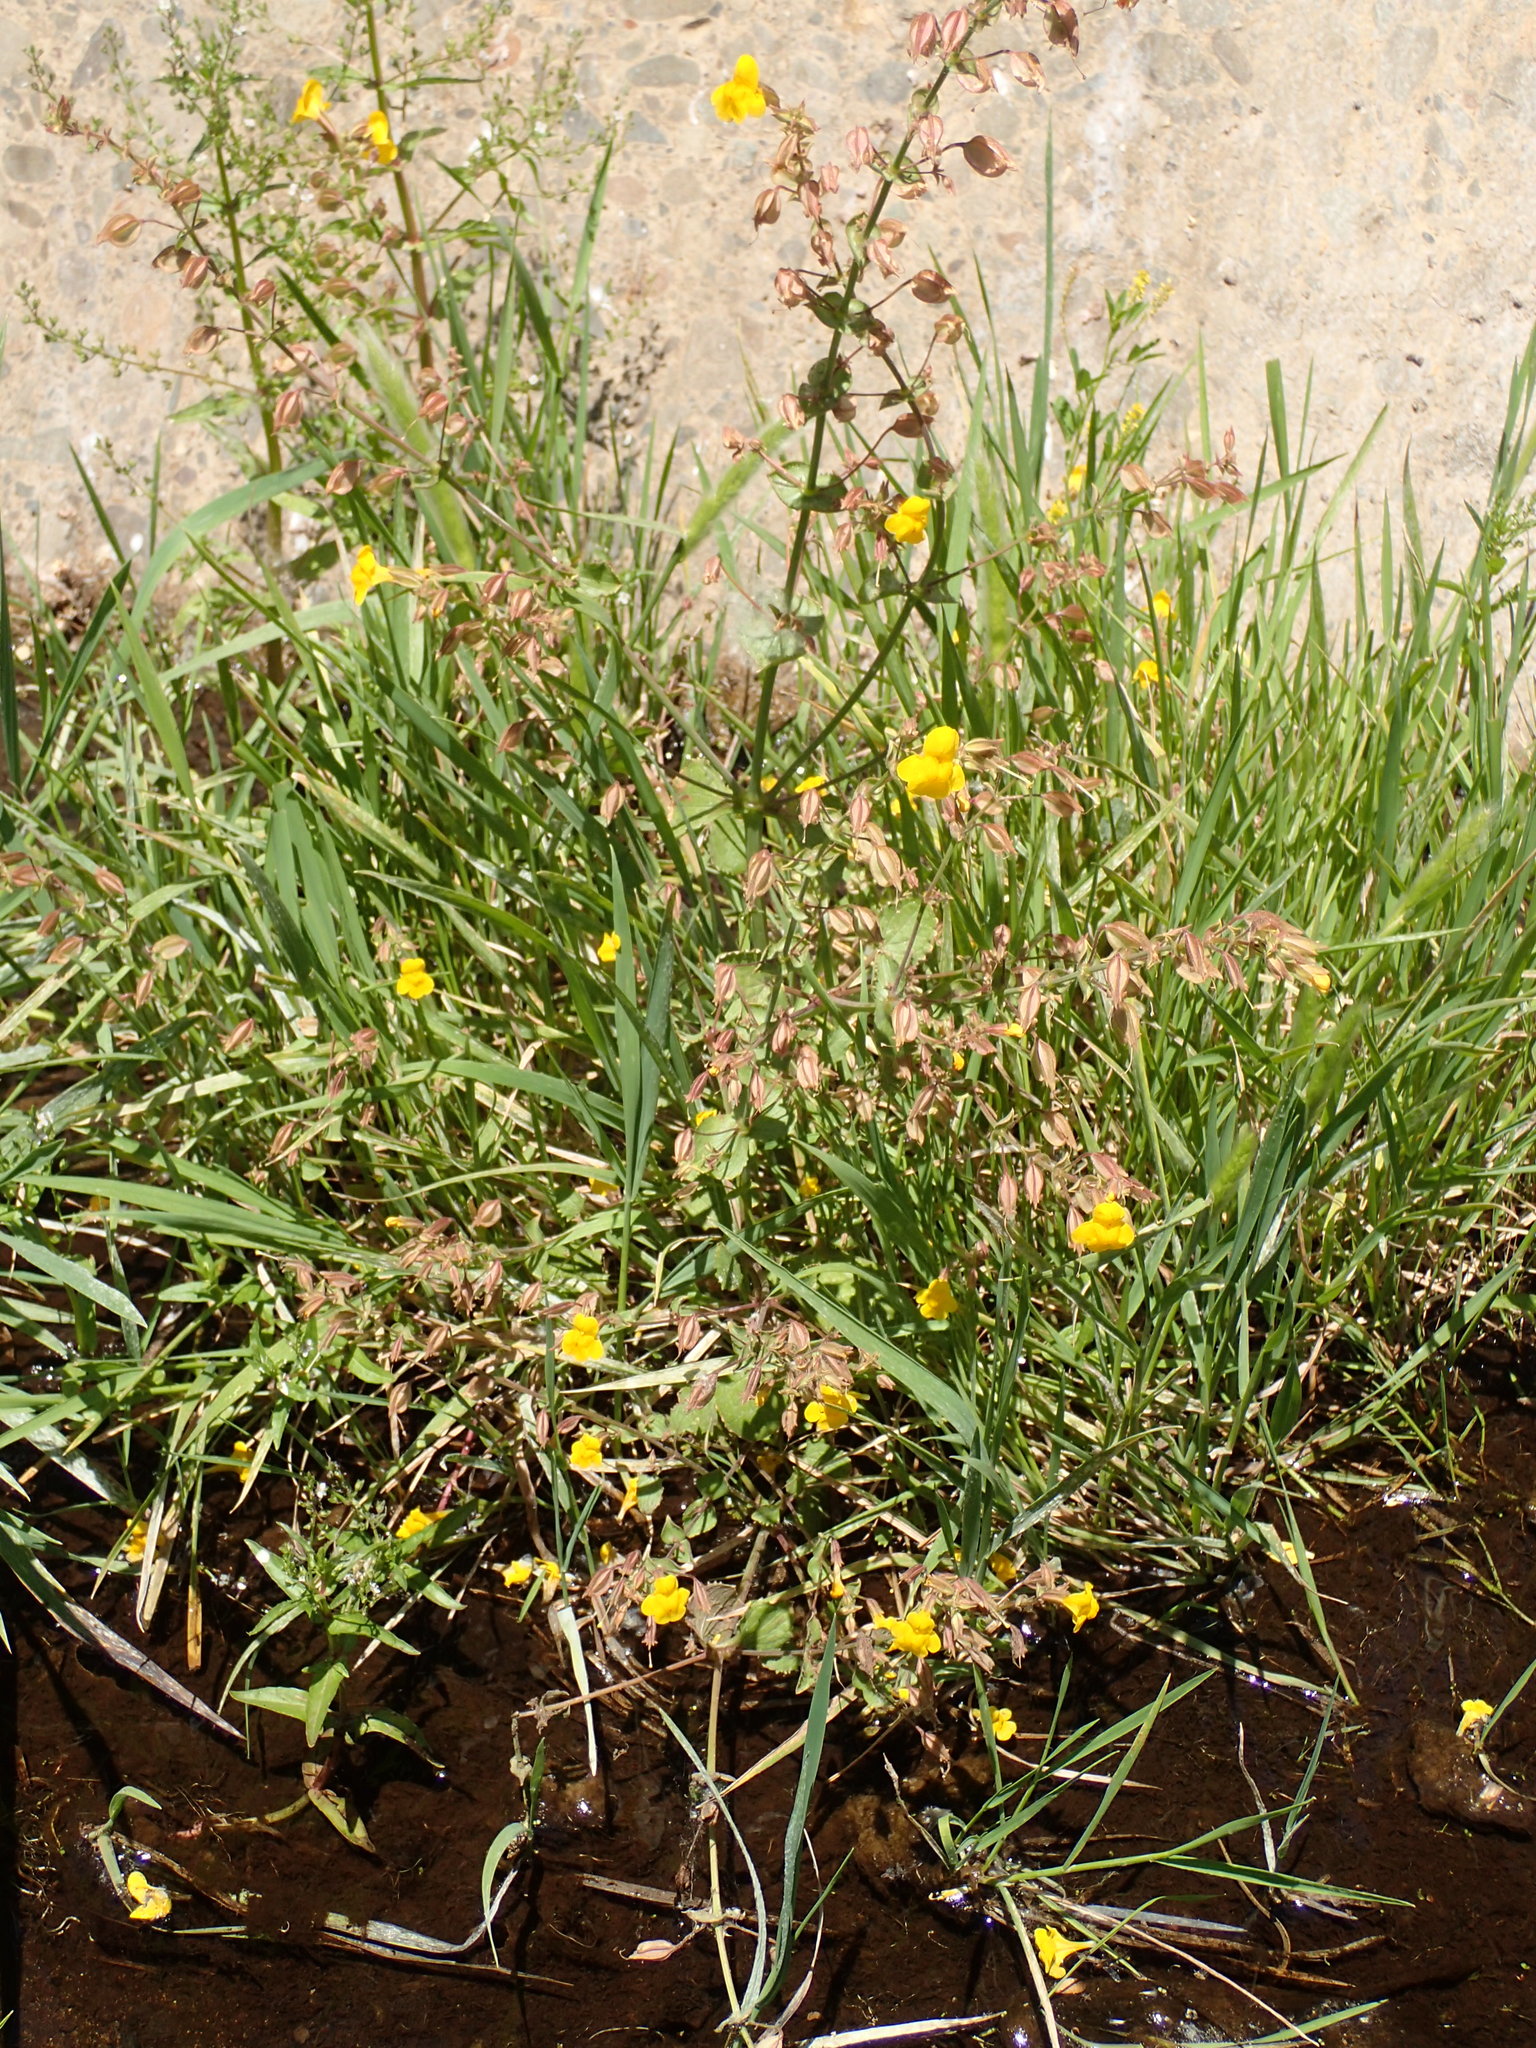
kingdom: Plantae
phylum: Tracheophyta
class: Magnoliopsida
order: Lamiales
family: Phrymaceae
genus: Erythranthe
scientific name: Erythranthe guttata
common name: Monkeyflower
